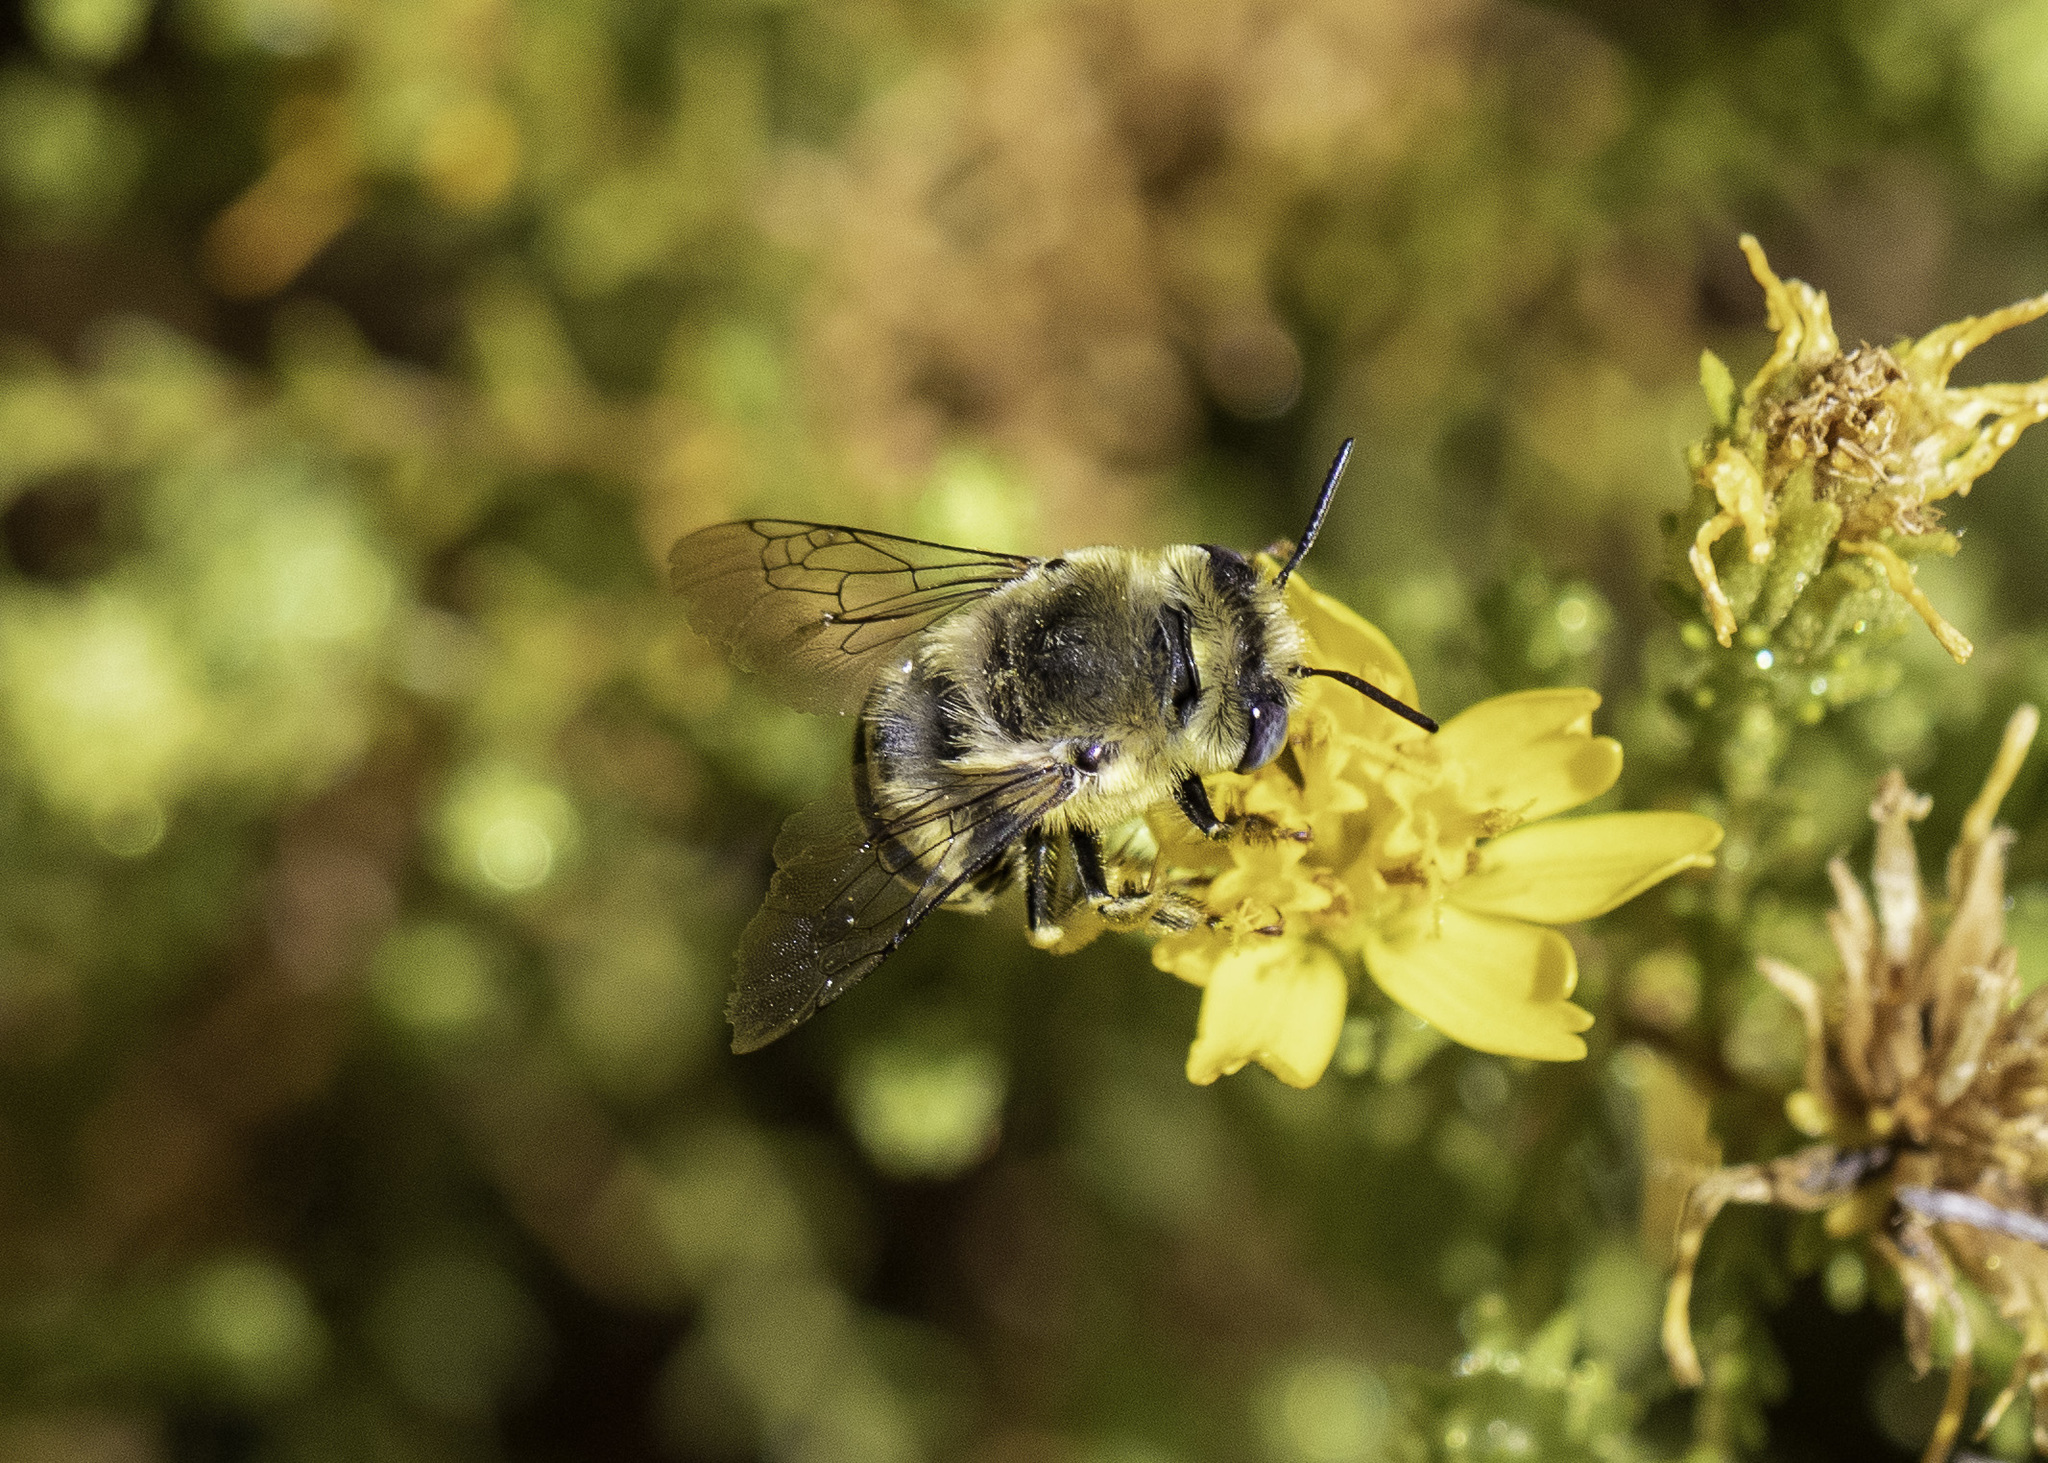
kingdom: Animalia
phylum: Arthropoda
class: Insecta
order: Hymenoptera
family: Apidae
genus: Anthophora
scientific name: Anthophora urbana
